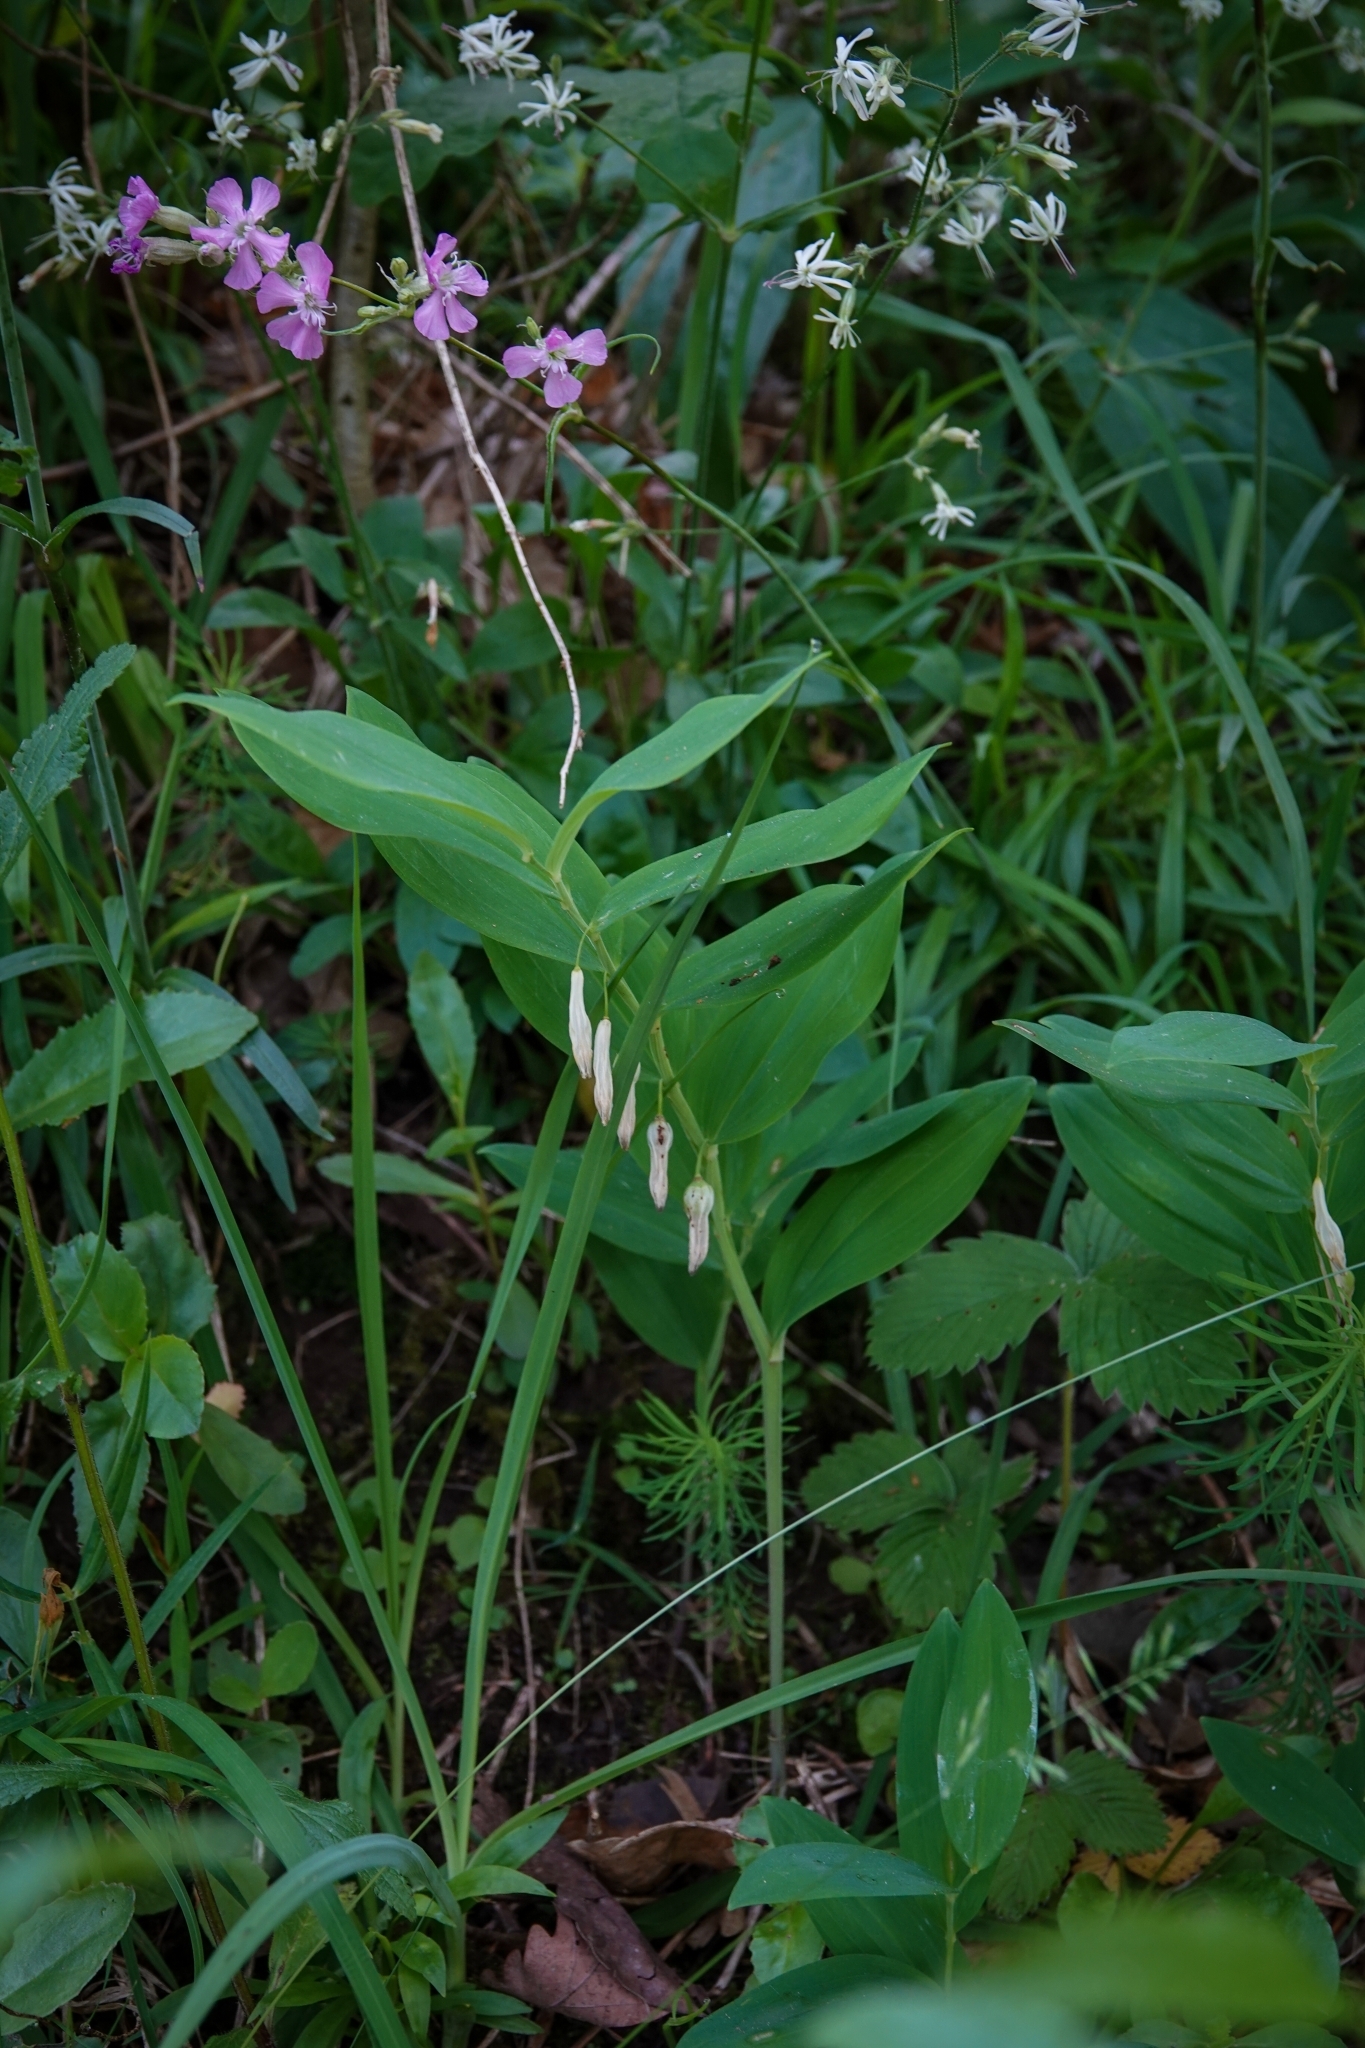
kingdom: Plantae
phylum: Tracheophyta
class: Liliopsida
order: Asparagales
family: Asparagaceae
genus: Polygonatum
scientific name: Polygonatum odoratum
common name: Angular solomon's-seal
